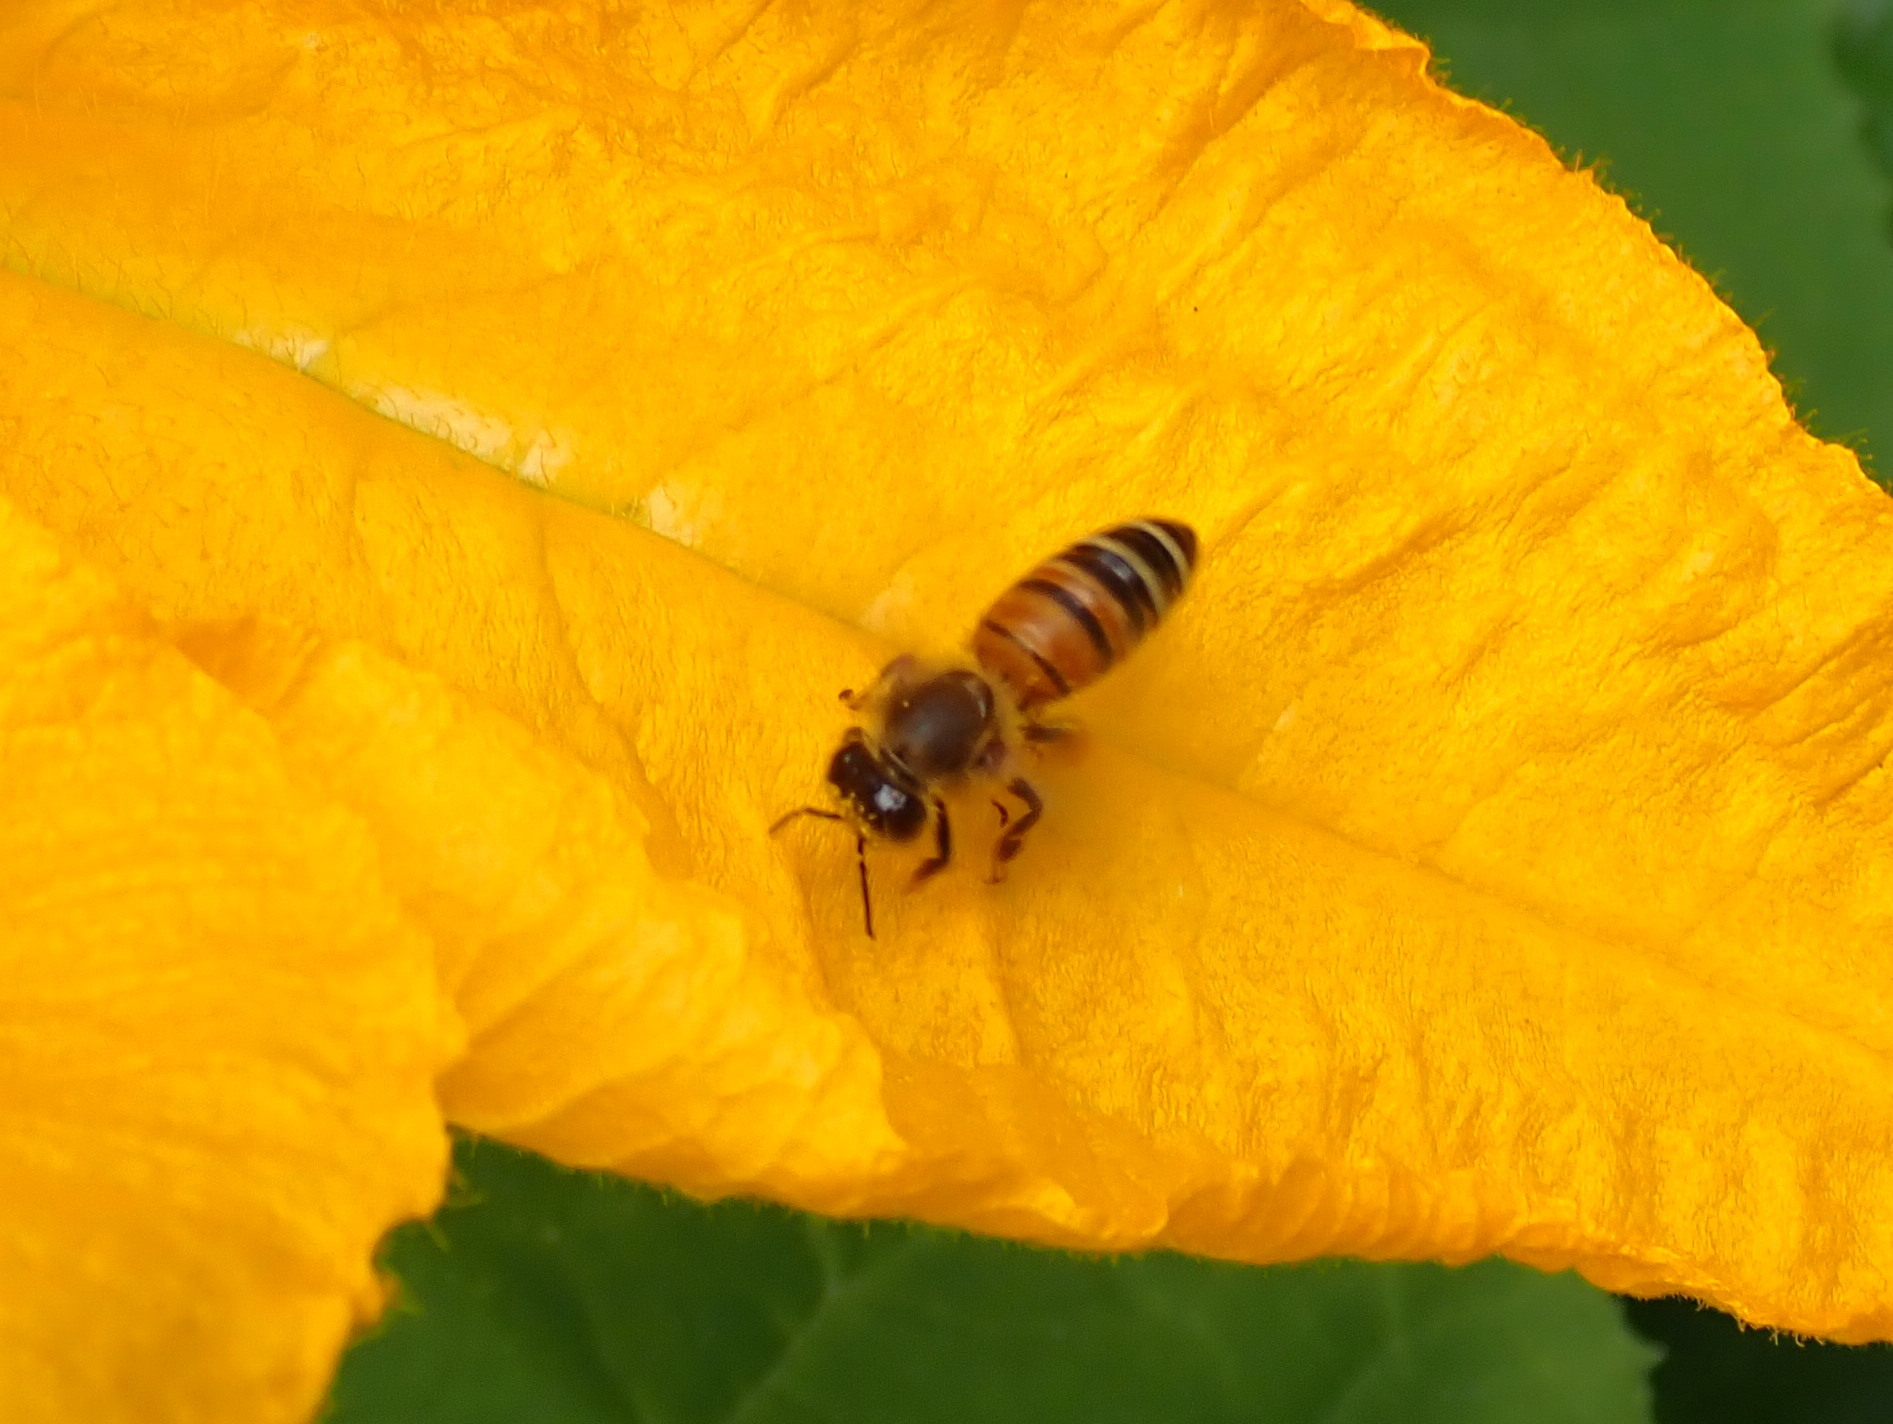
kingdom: Animalia
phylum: Arthropoda
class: Insecta
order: Hymenoptera
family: Apidae
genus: Apis
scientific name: Apis mellifera
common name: Honey bee
